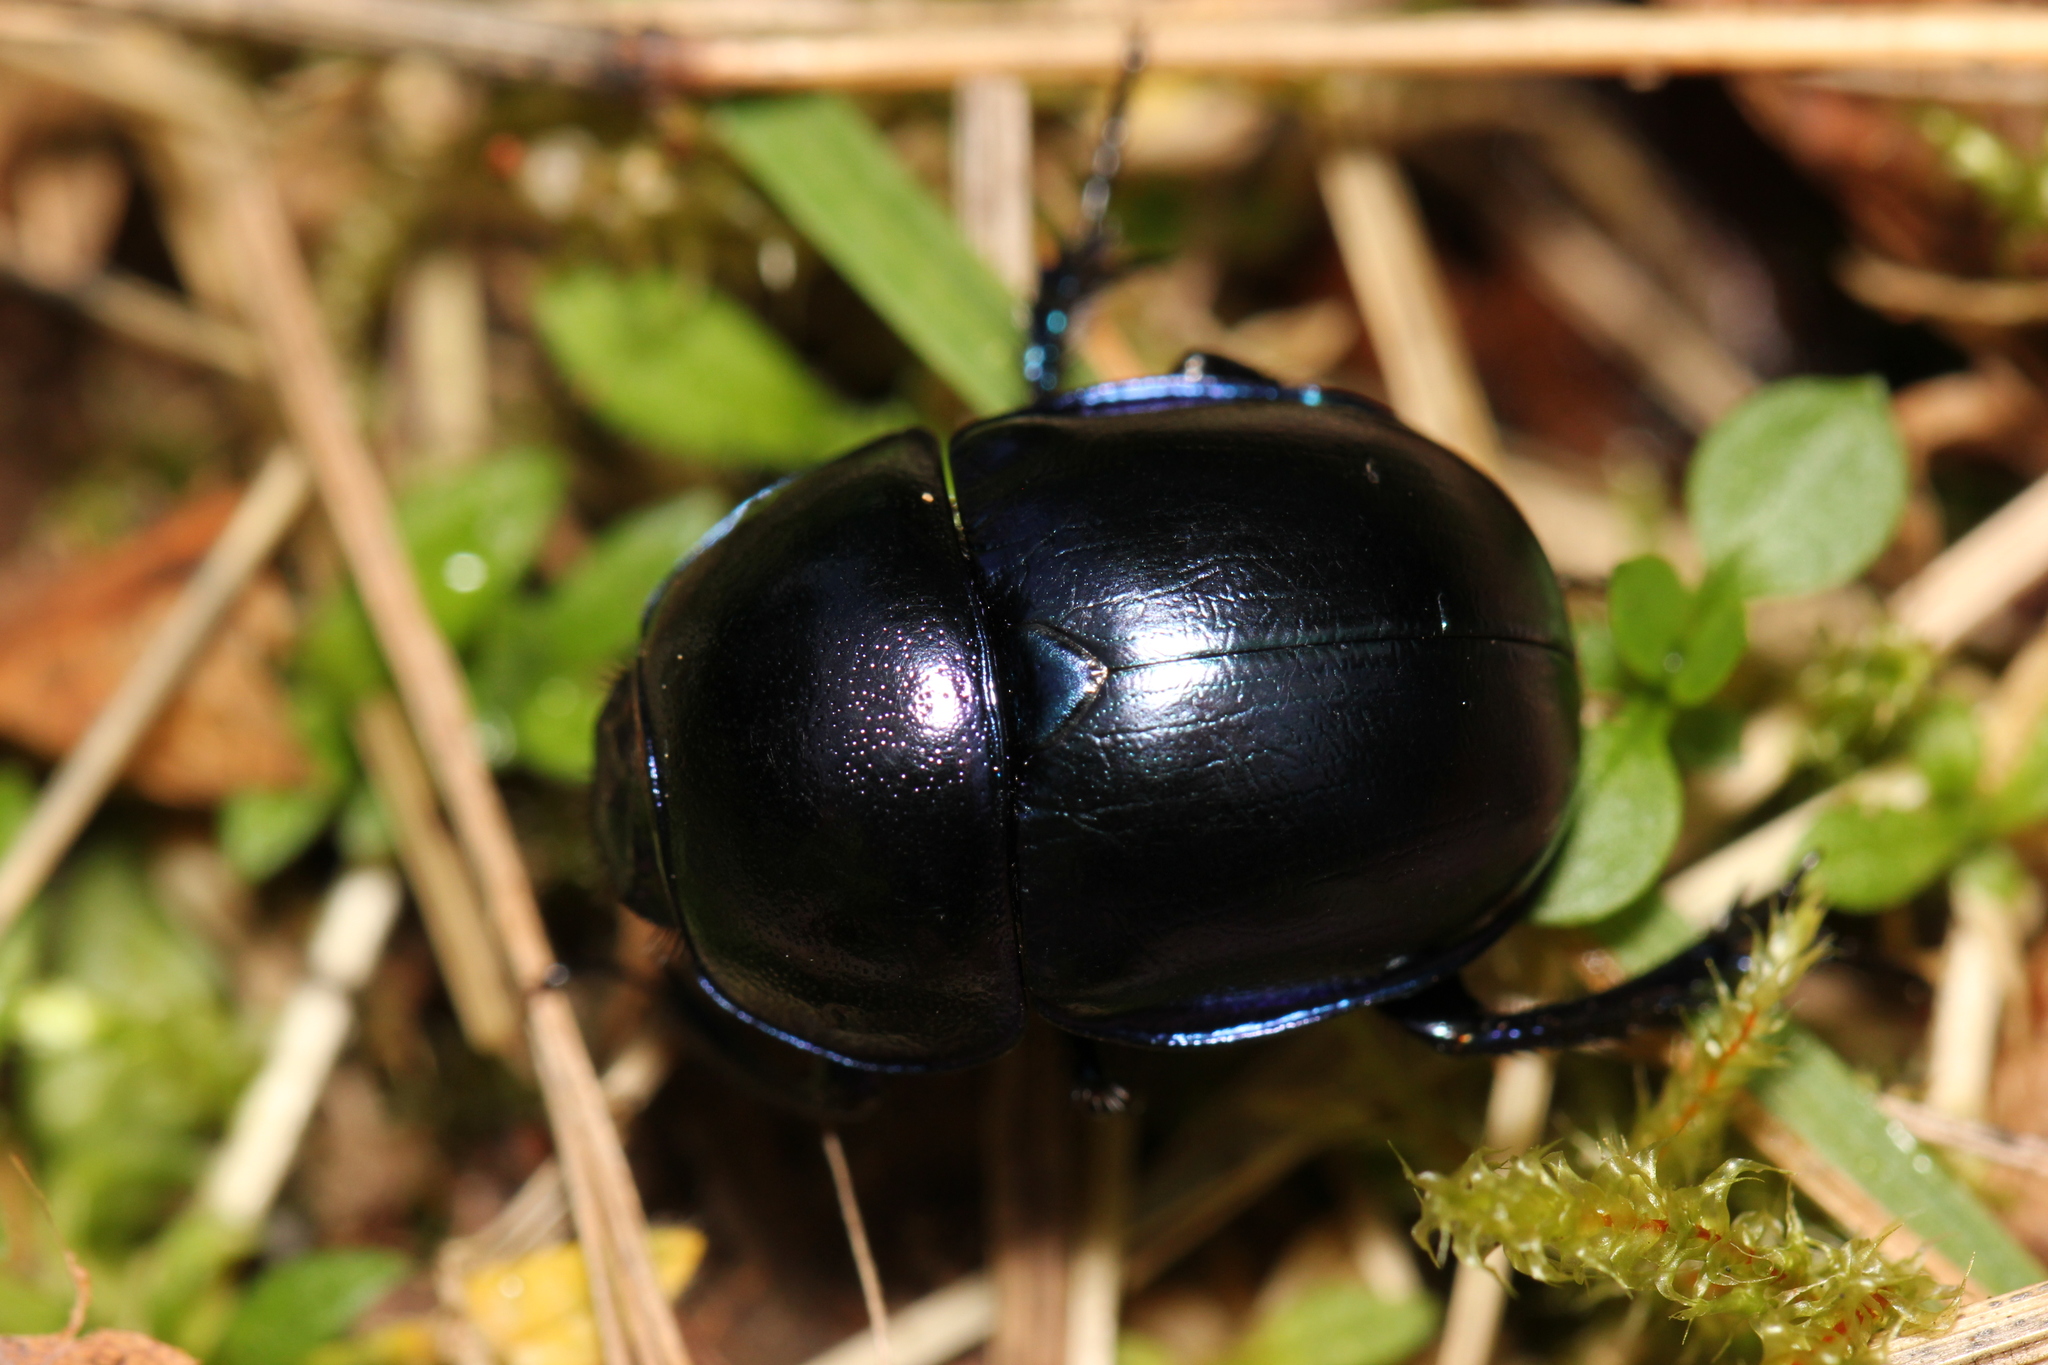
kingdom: Animalia
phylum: Arthropoda
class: Insecta
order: Coleoptera
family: Geotrupidae
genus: Trypocopris
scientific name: Trypocopris vernalis
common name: Spring dumbledor
